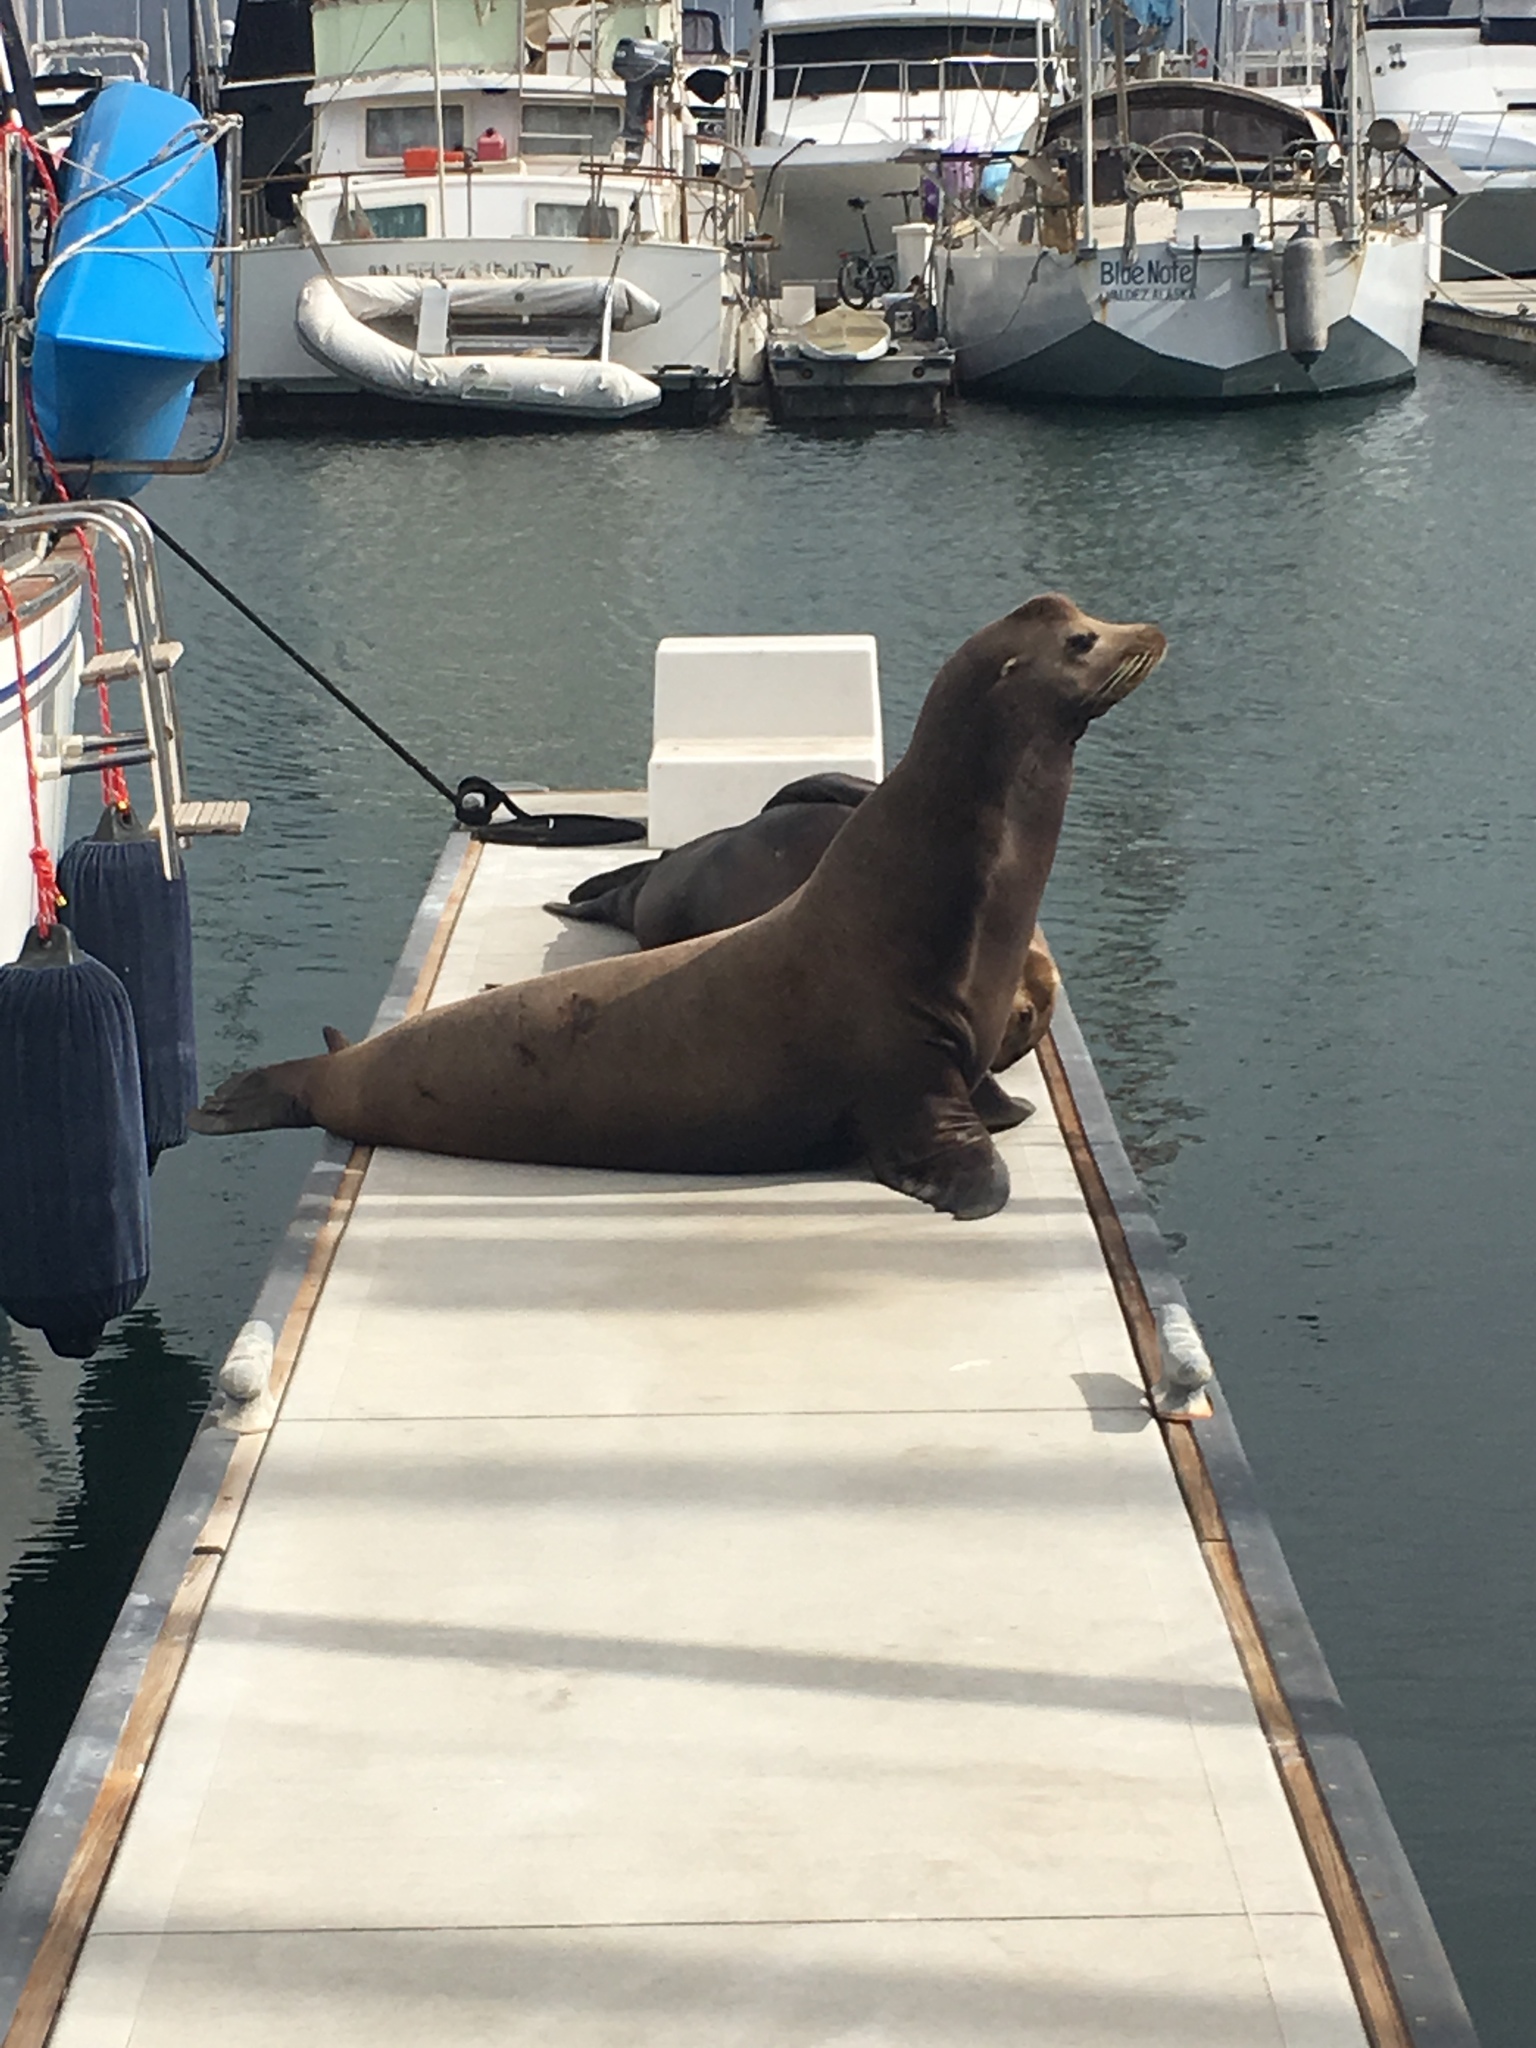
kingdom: Animalia
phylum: Chordata
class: Mammalia
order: Carnivora
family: Otariidae
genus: Zalophus
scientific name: Zalophus californianus
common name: California sea lion
